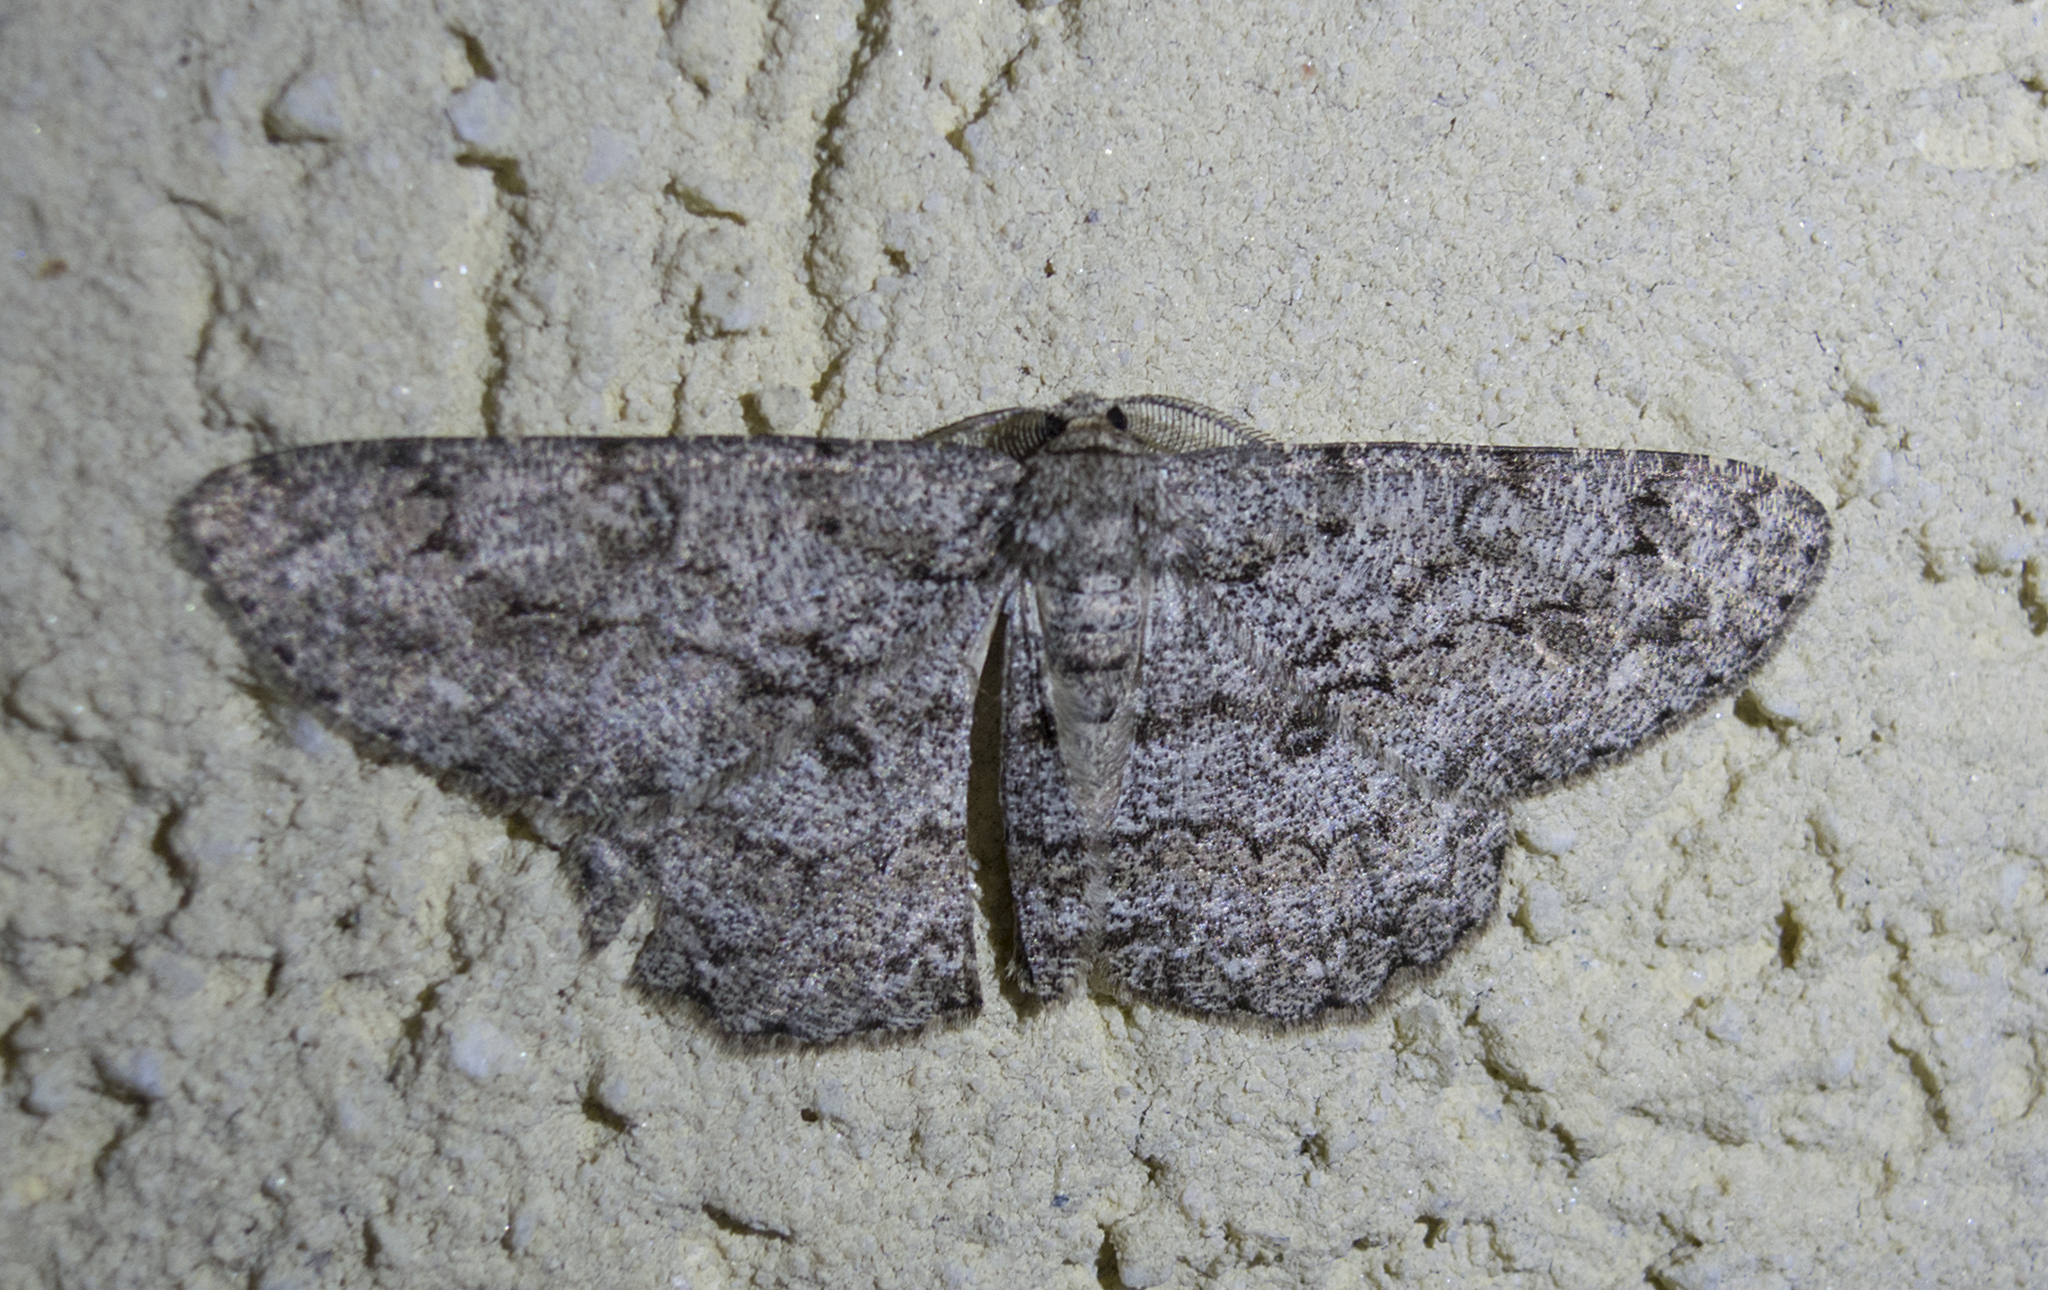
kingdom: Animalia
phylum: Arthropoda
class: Insecta
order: Lepidoptera
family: Geometridae
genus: Hypomecis
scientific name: Hypomecis punctinalis
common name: Pale oak beauty
